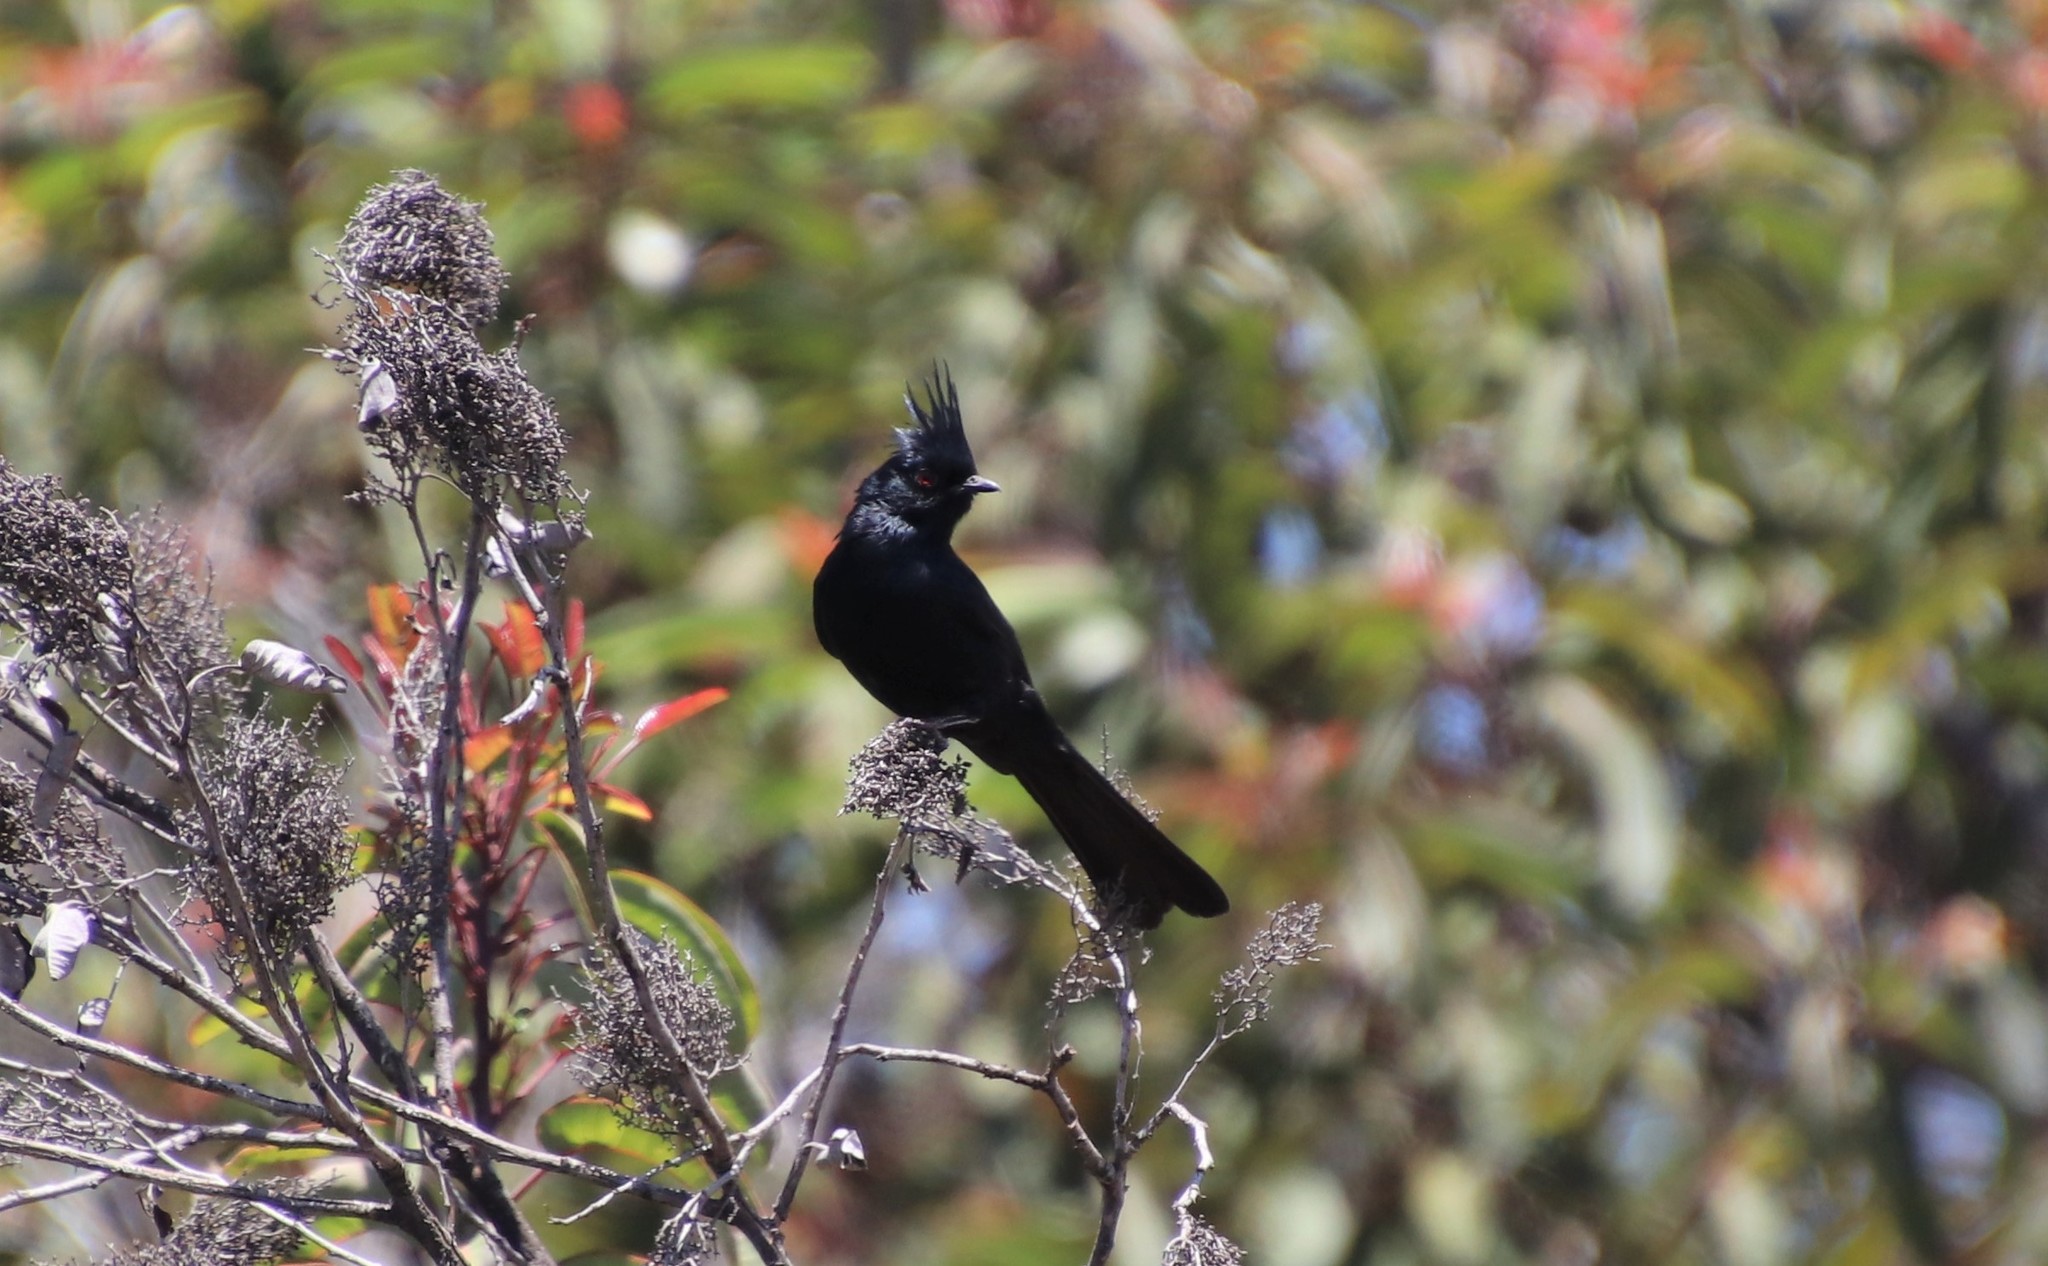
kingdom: Animalia
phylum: Chordata
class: Aves
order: Passeriformes
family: Ptilogonatidae
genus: Phainopepla
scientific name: Phainopepla nitens
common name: Phainopepla
